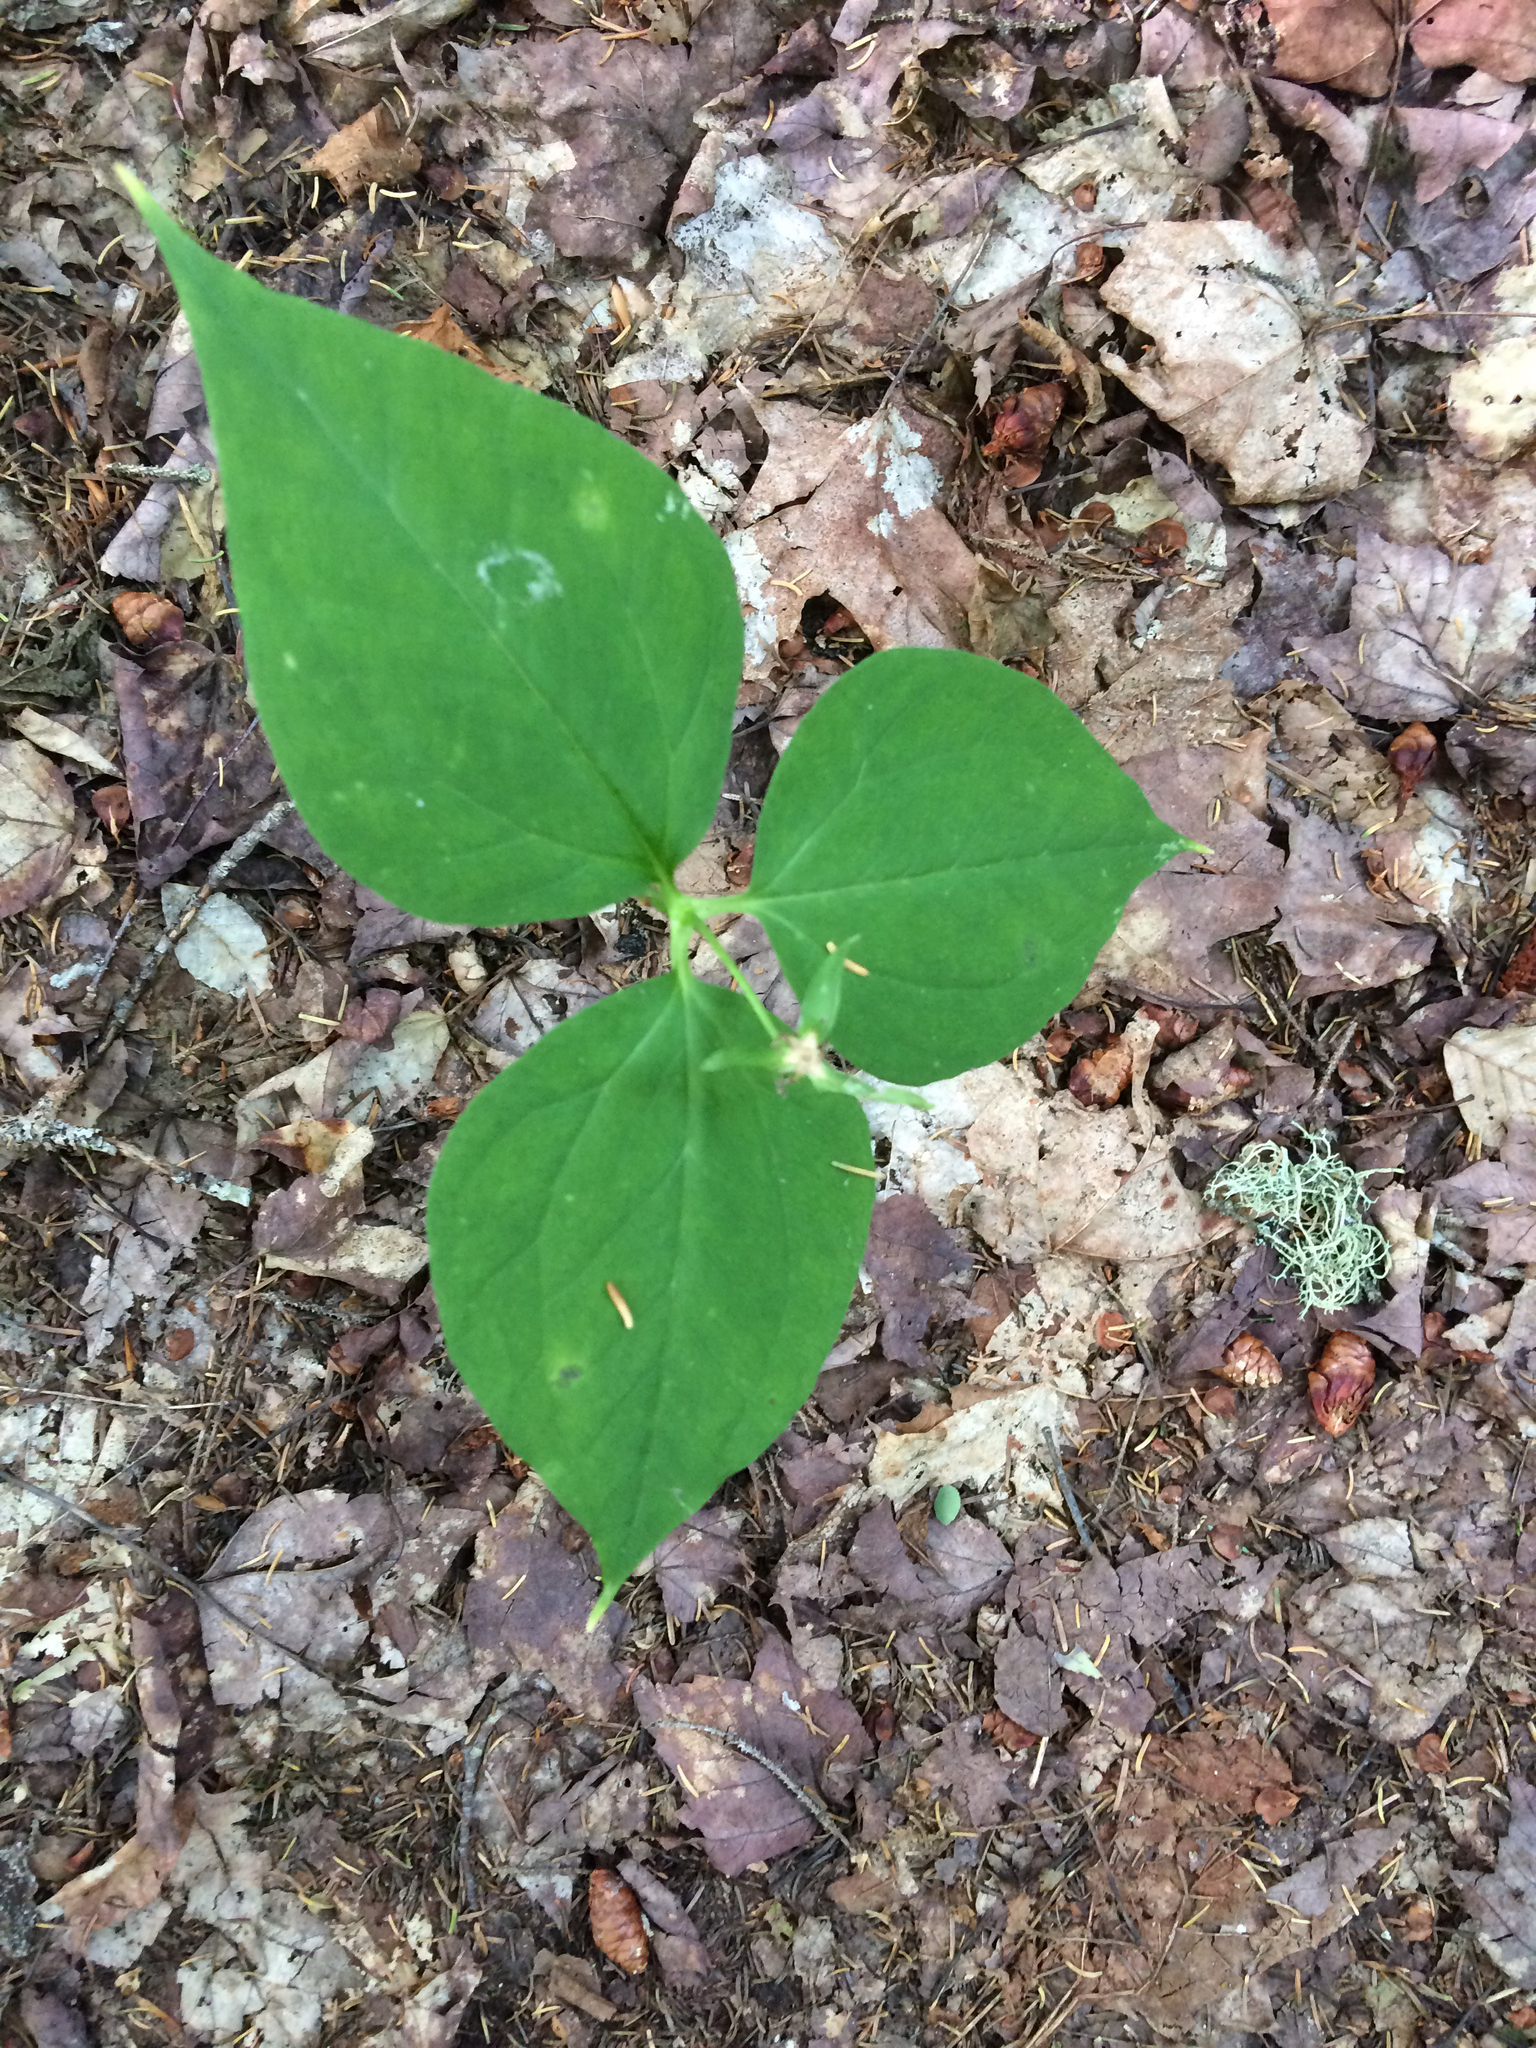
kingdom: Plantae
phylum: Tracheophyta
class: Liliopsida
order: Liliales
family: Melanthiaceae
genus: Trillium
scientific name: Trillium undulatum
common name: Paint trillium
